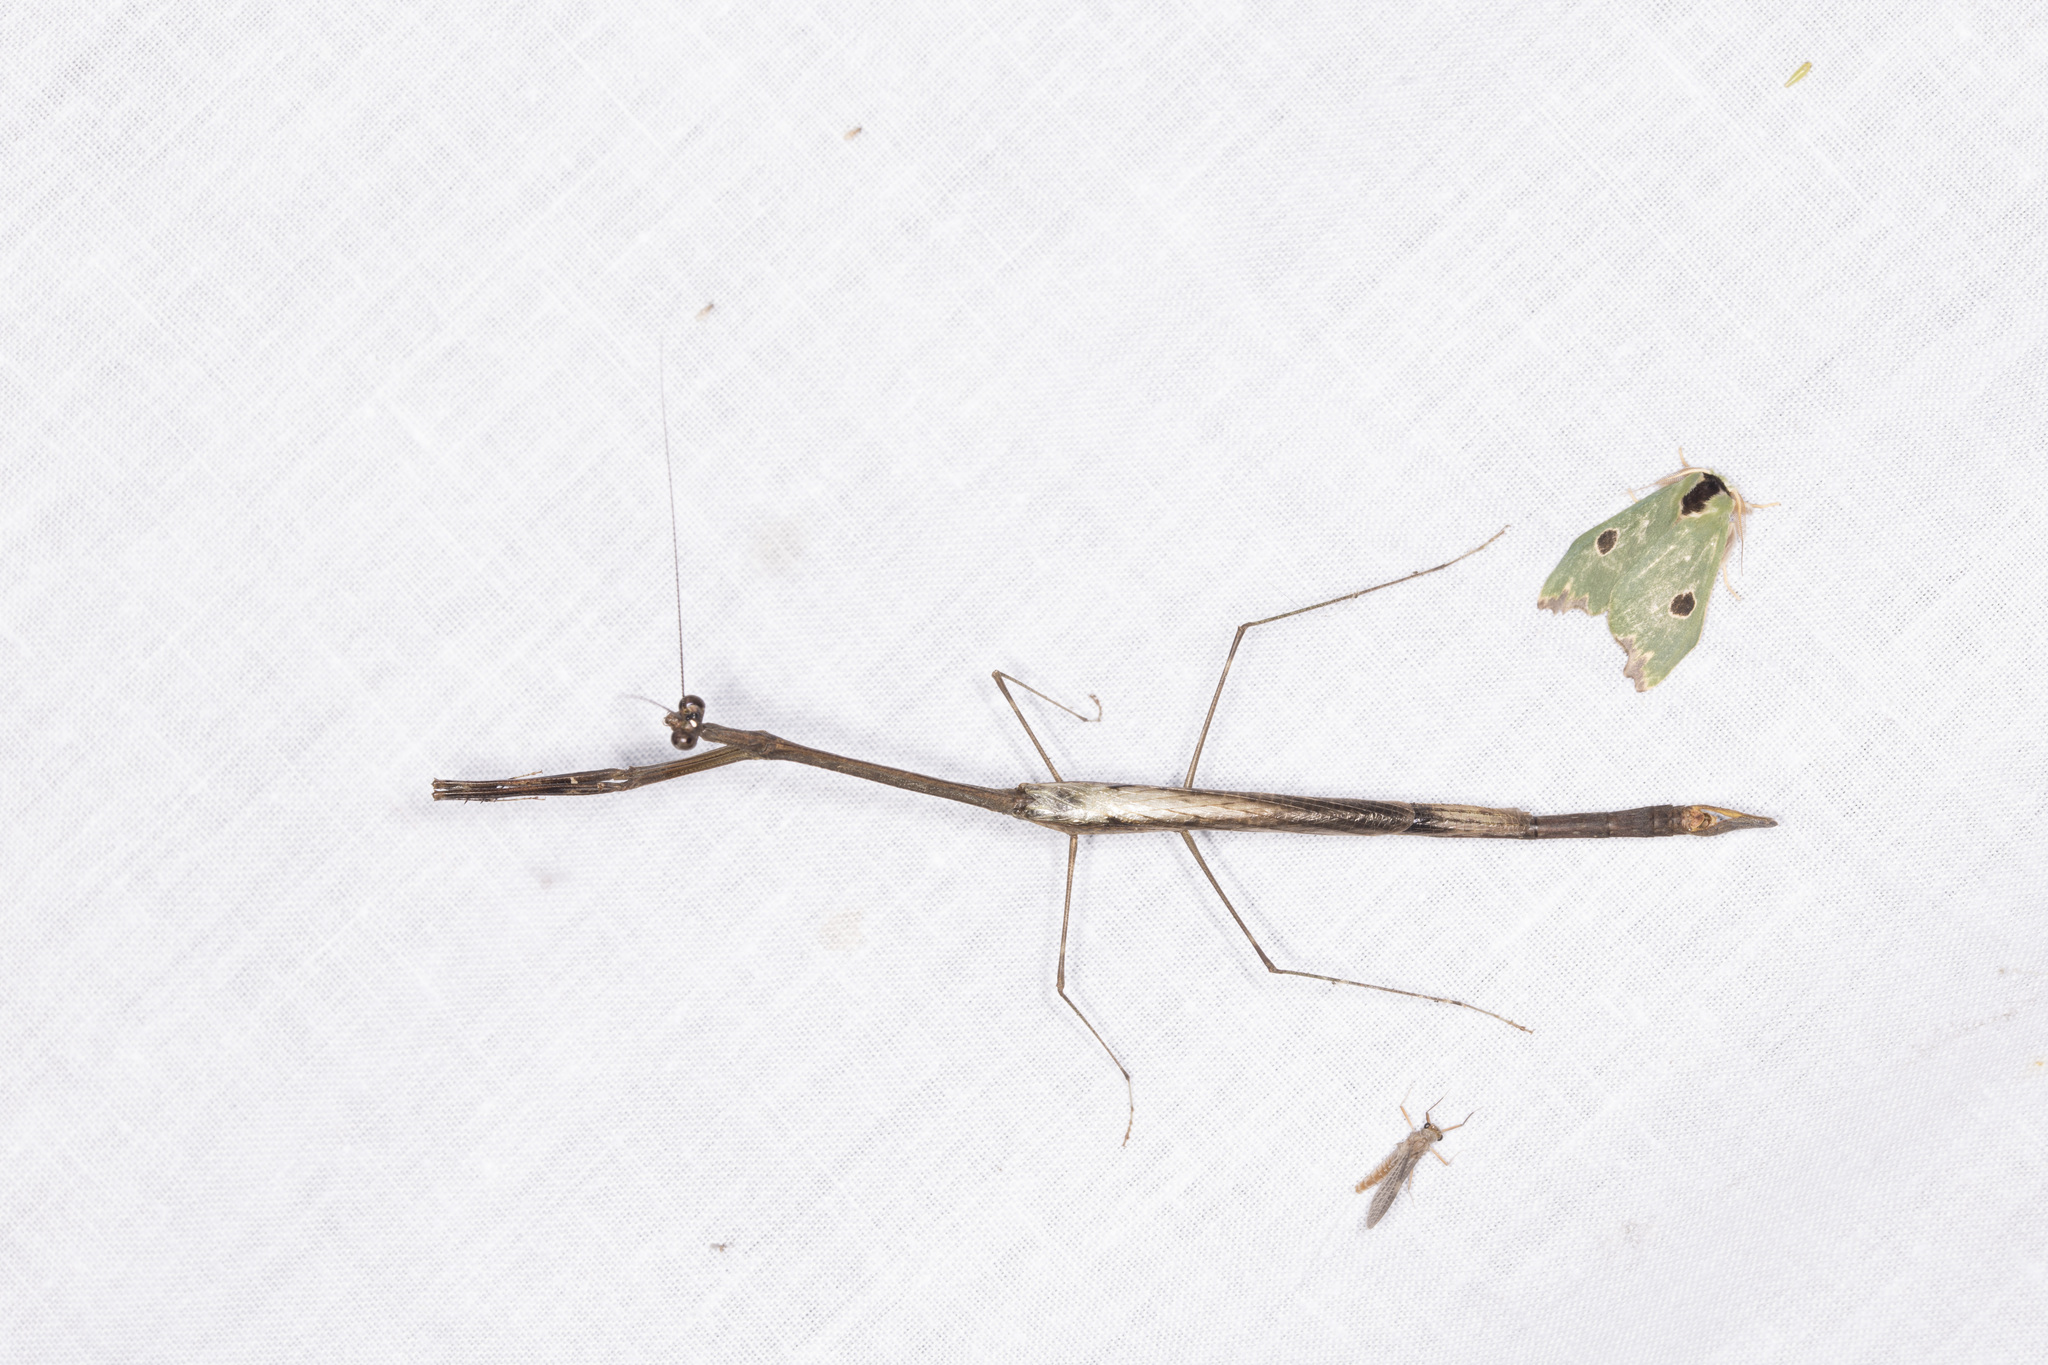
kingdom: Animalia
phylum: Arthropoda
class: Insecta
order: Lepidoptera
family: Notodontidae
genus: Rosema
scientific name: Rosema deolis
